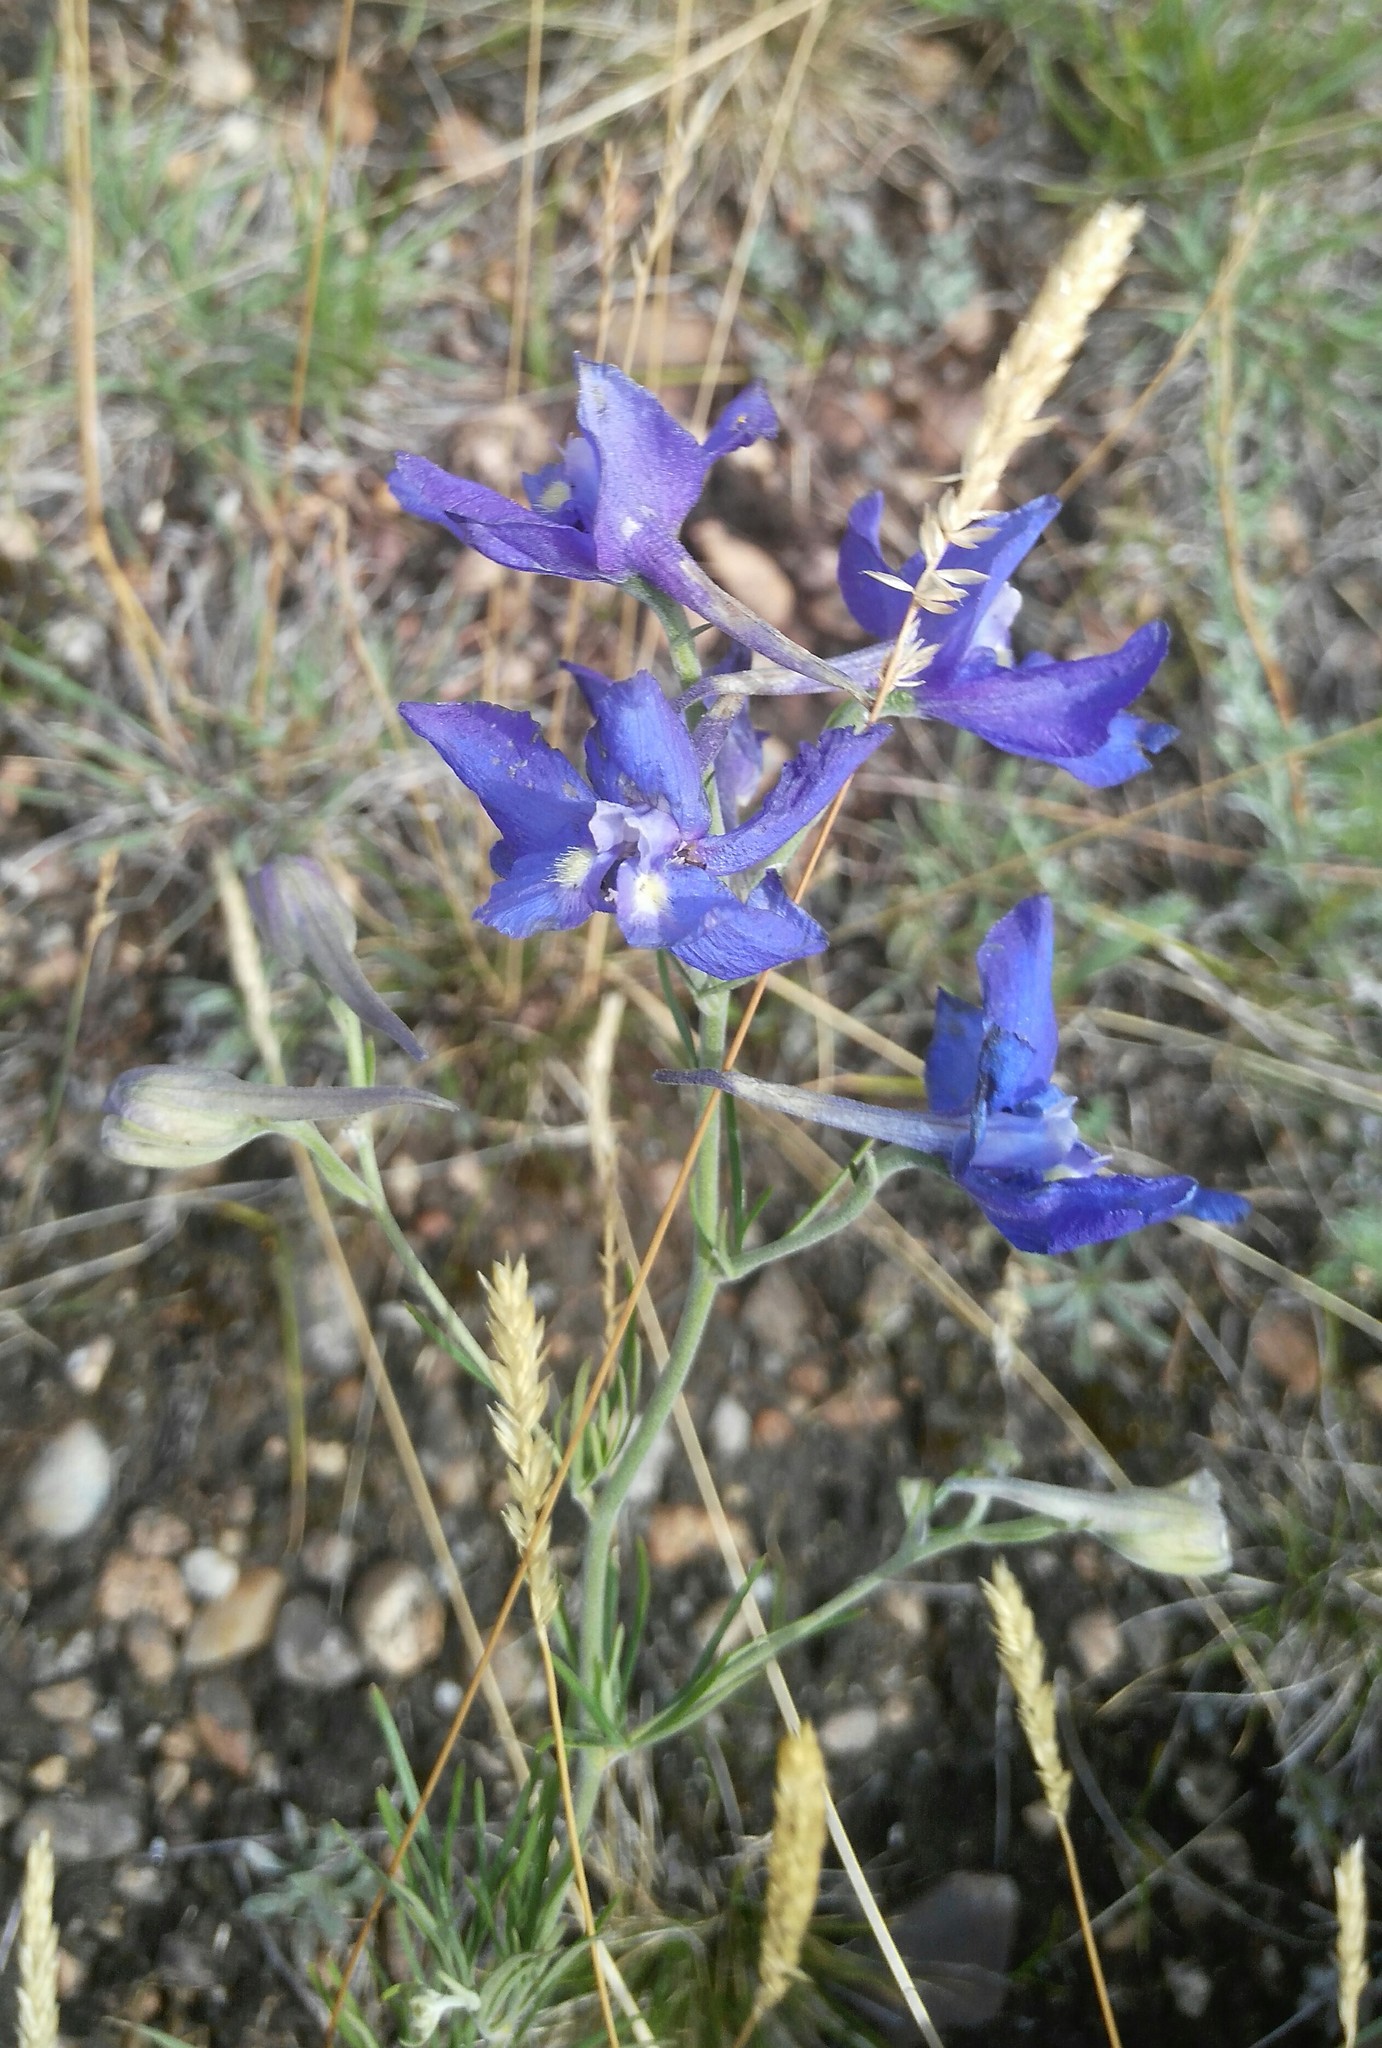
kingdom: Plantae
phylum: Tracheophyta
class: Magnoliopsida
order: Ranunculales
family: Ranunculaceae
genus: Delphinium
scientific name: Delphinium grandiflorum
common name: Siberian larkspur
